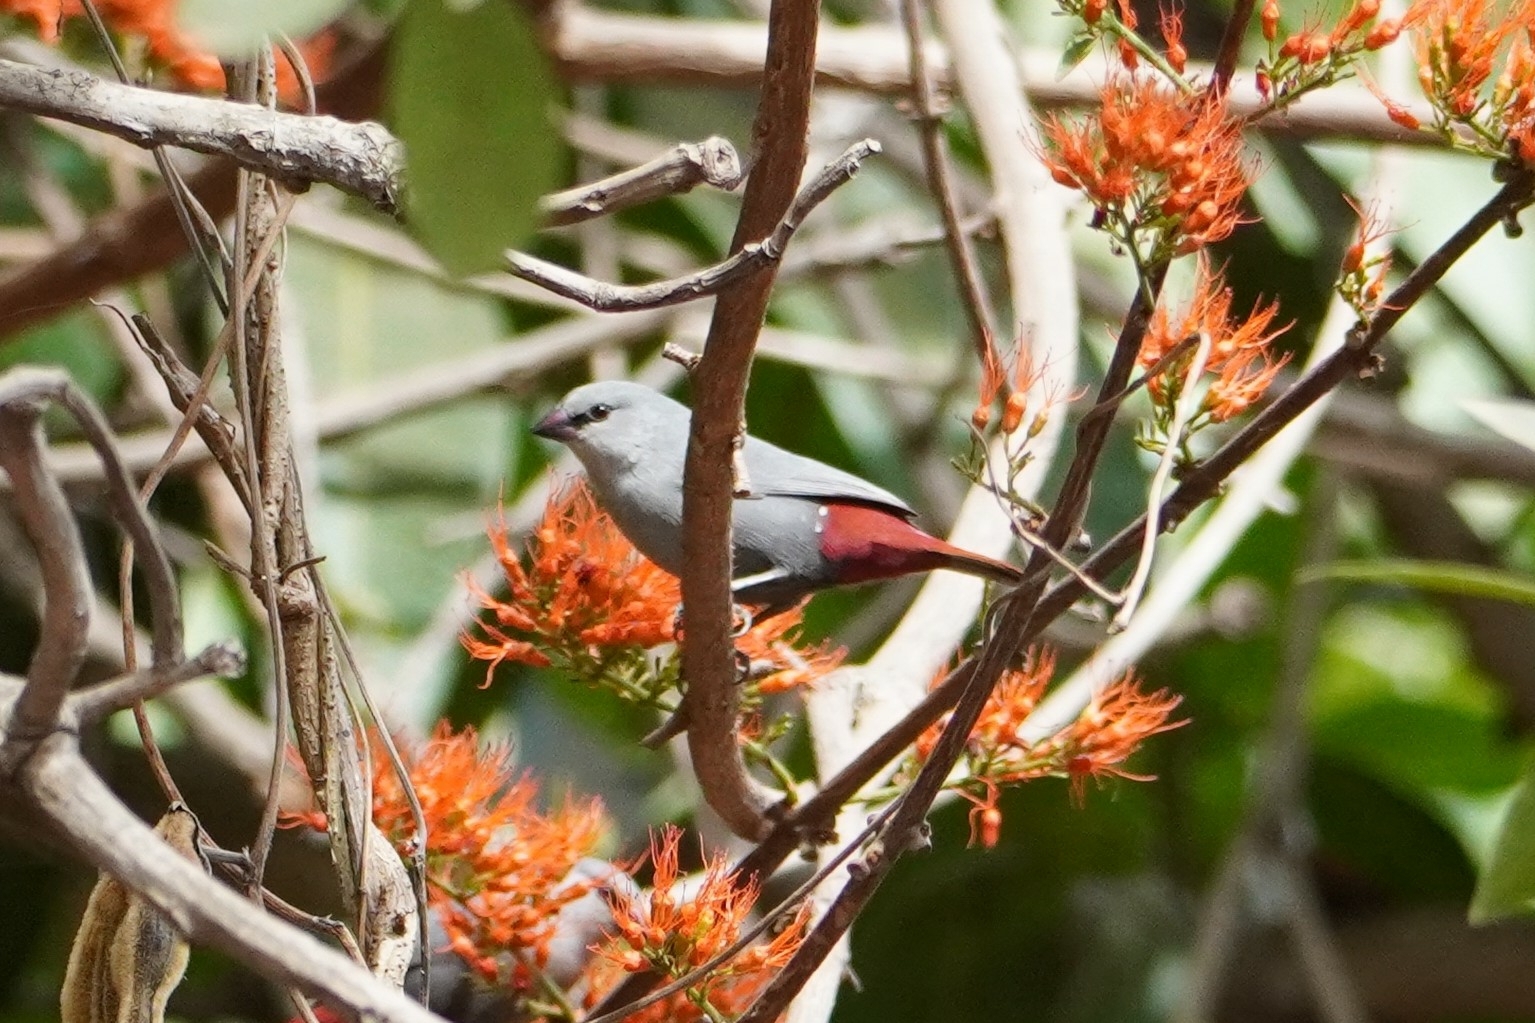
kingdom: Animalia
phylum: Chordata
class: Aves
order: Passeriformes
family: Estrildidae
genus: Estrilda
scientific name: Estrilda caerulescens
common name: Lavender waxbill
